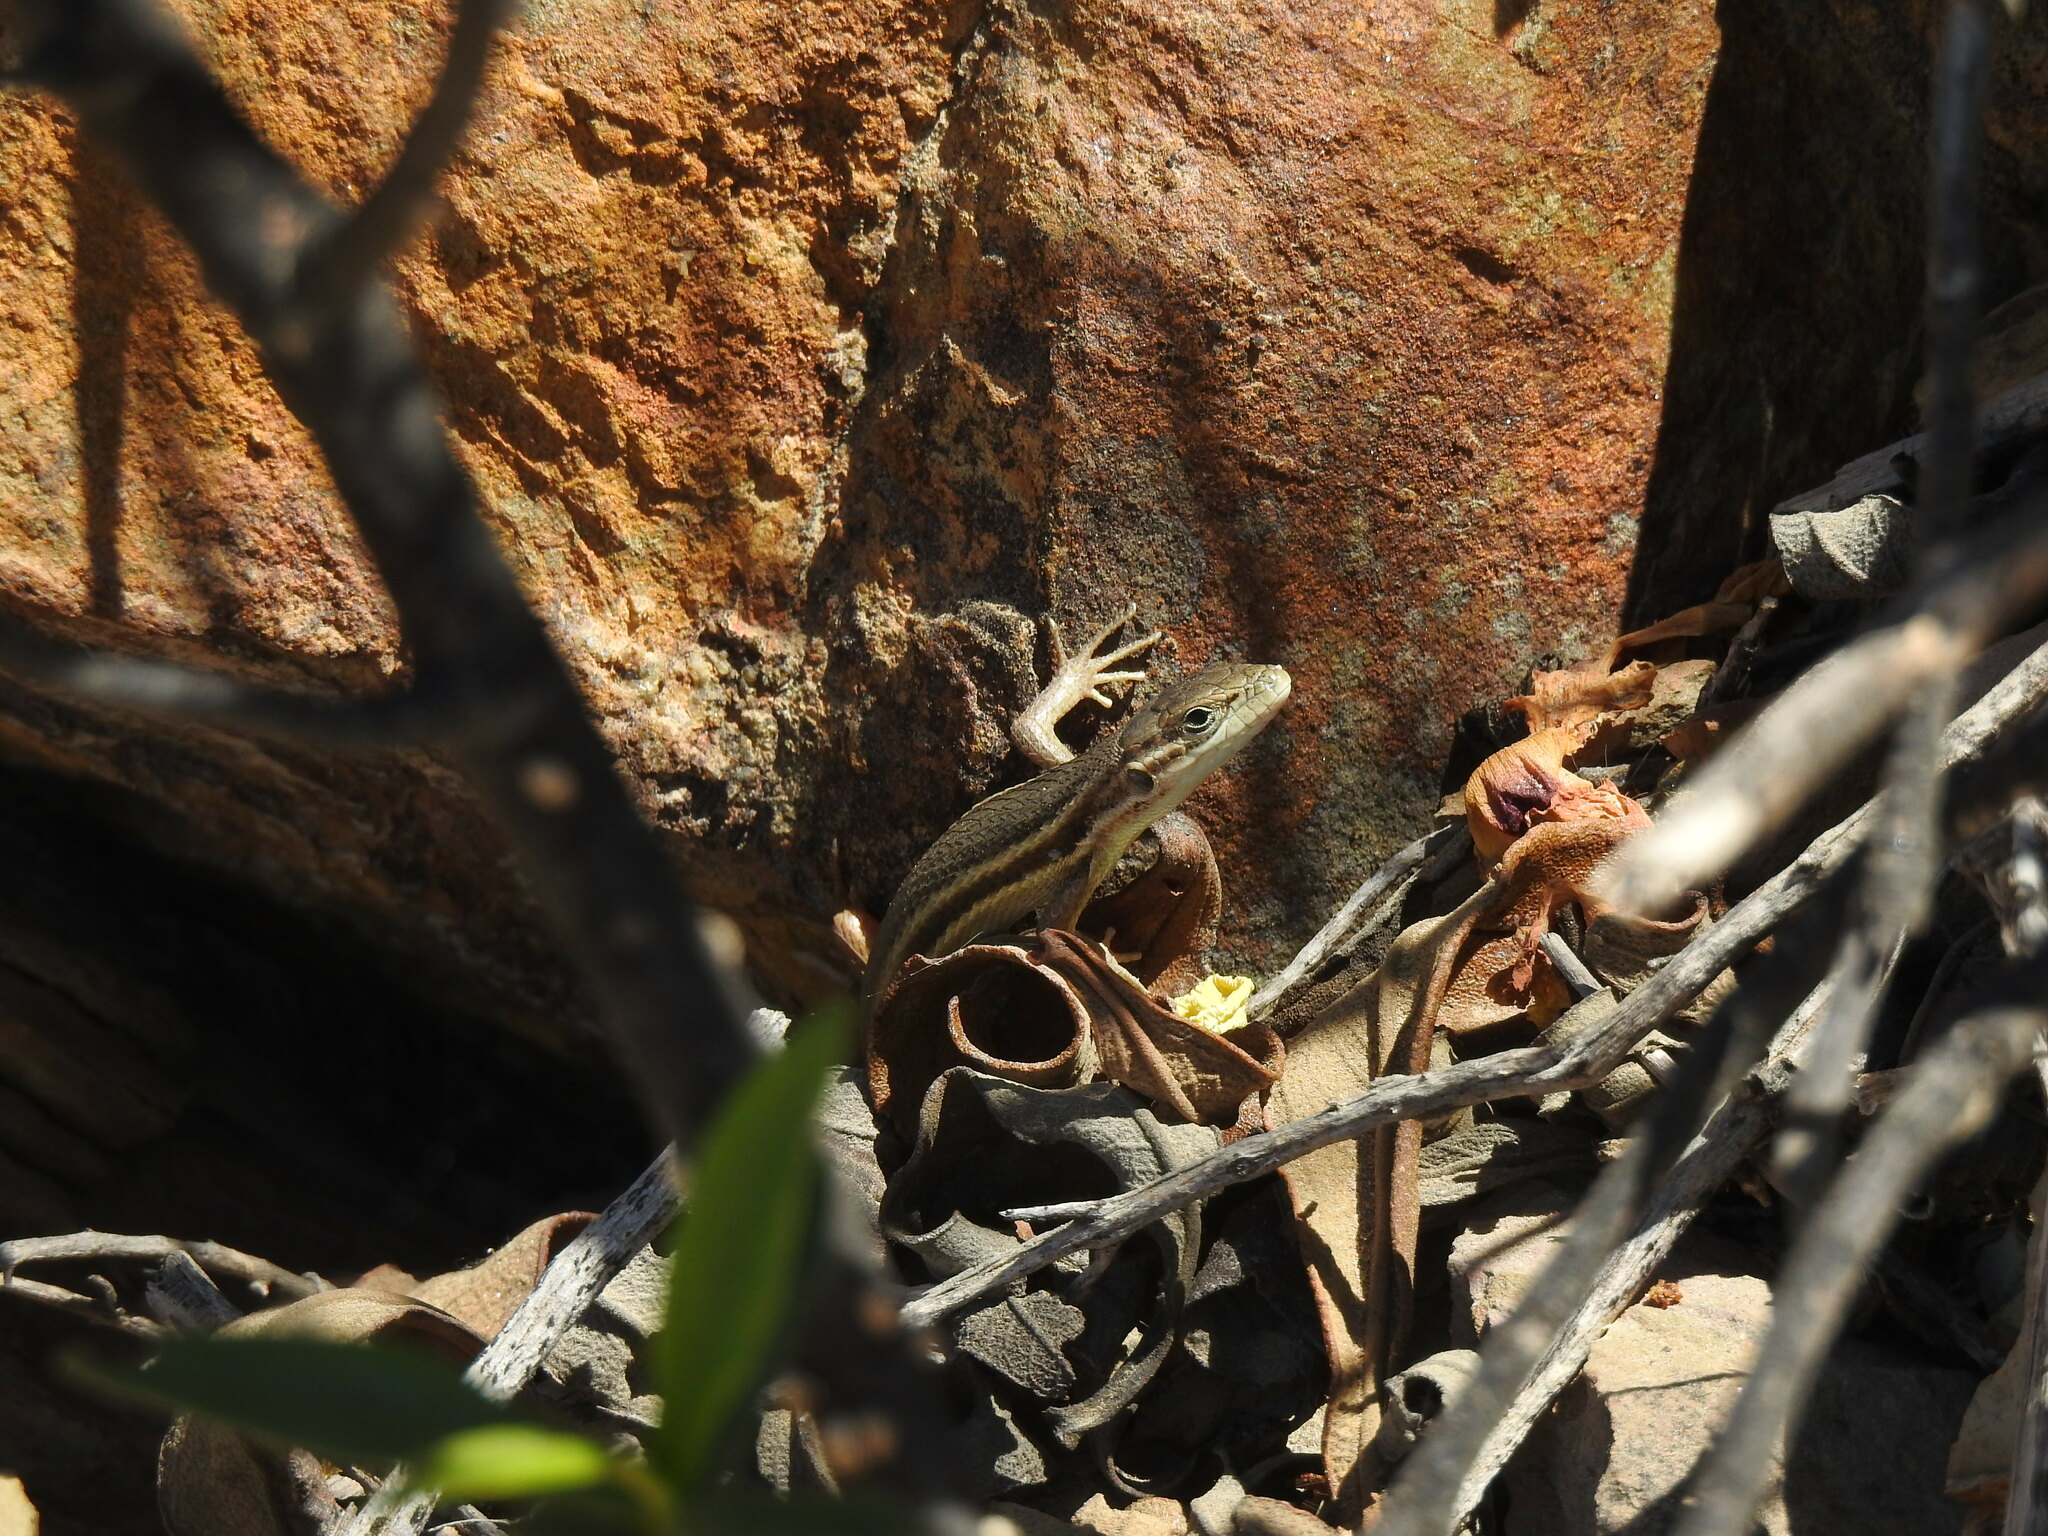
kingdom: Animalia
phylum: Chordata
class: Squamata
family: Lacertidae
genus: Psammodromus
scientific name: Psammodromus algirus
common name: Algerian psammodromus
